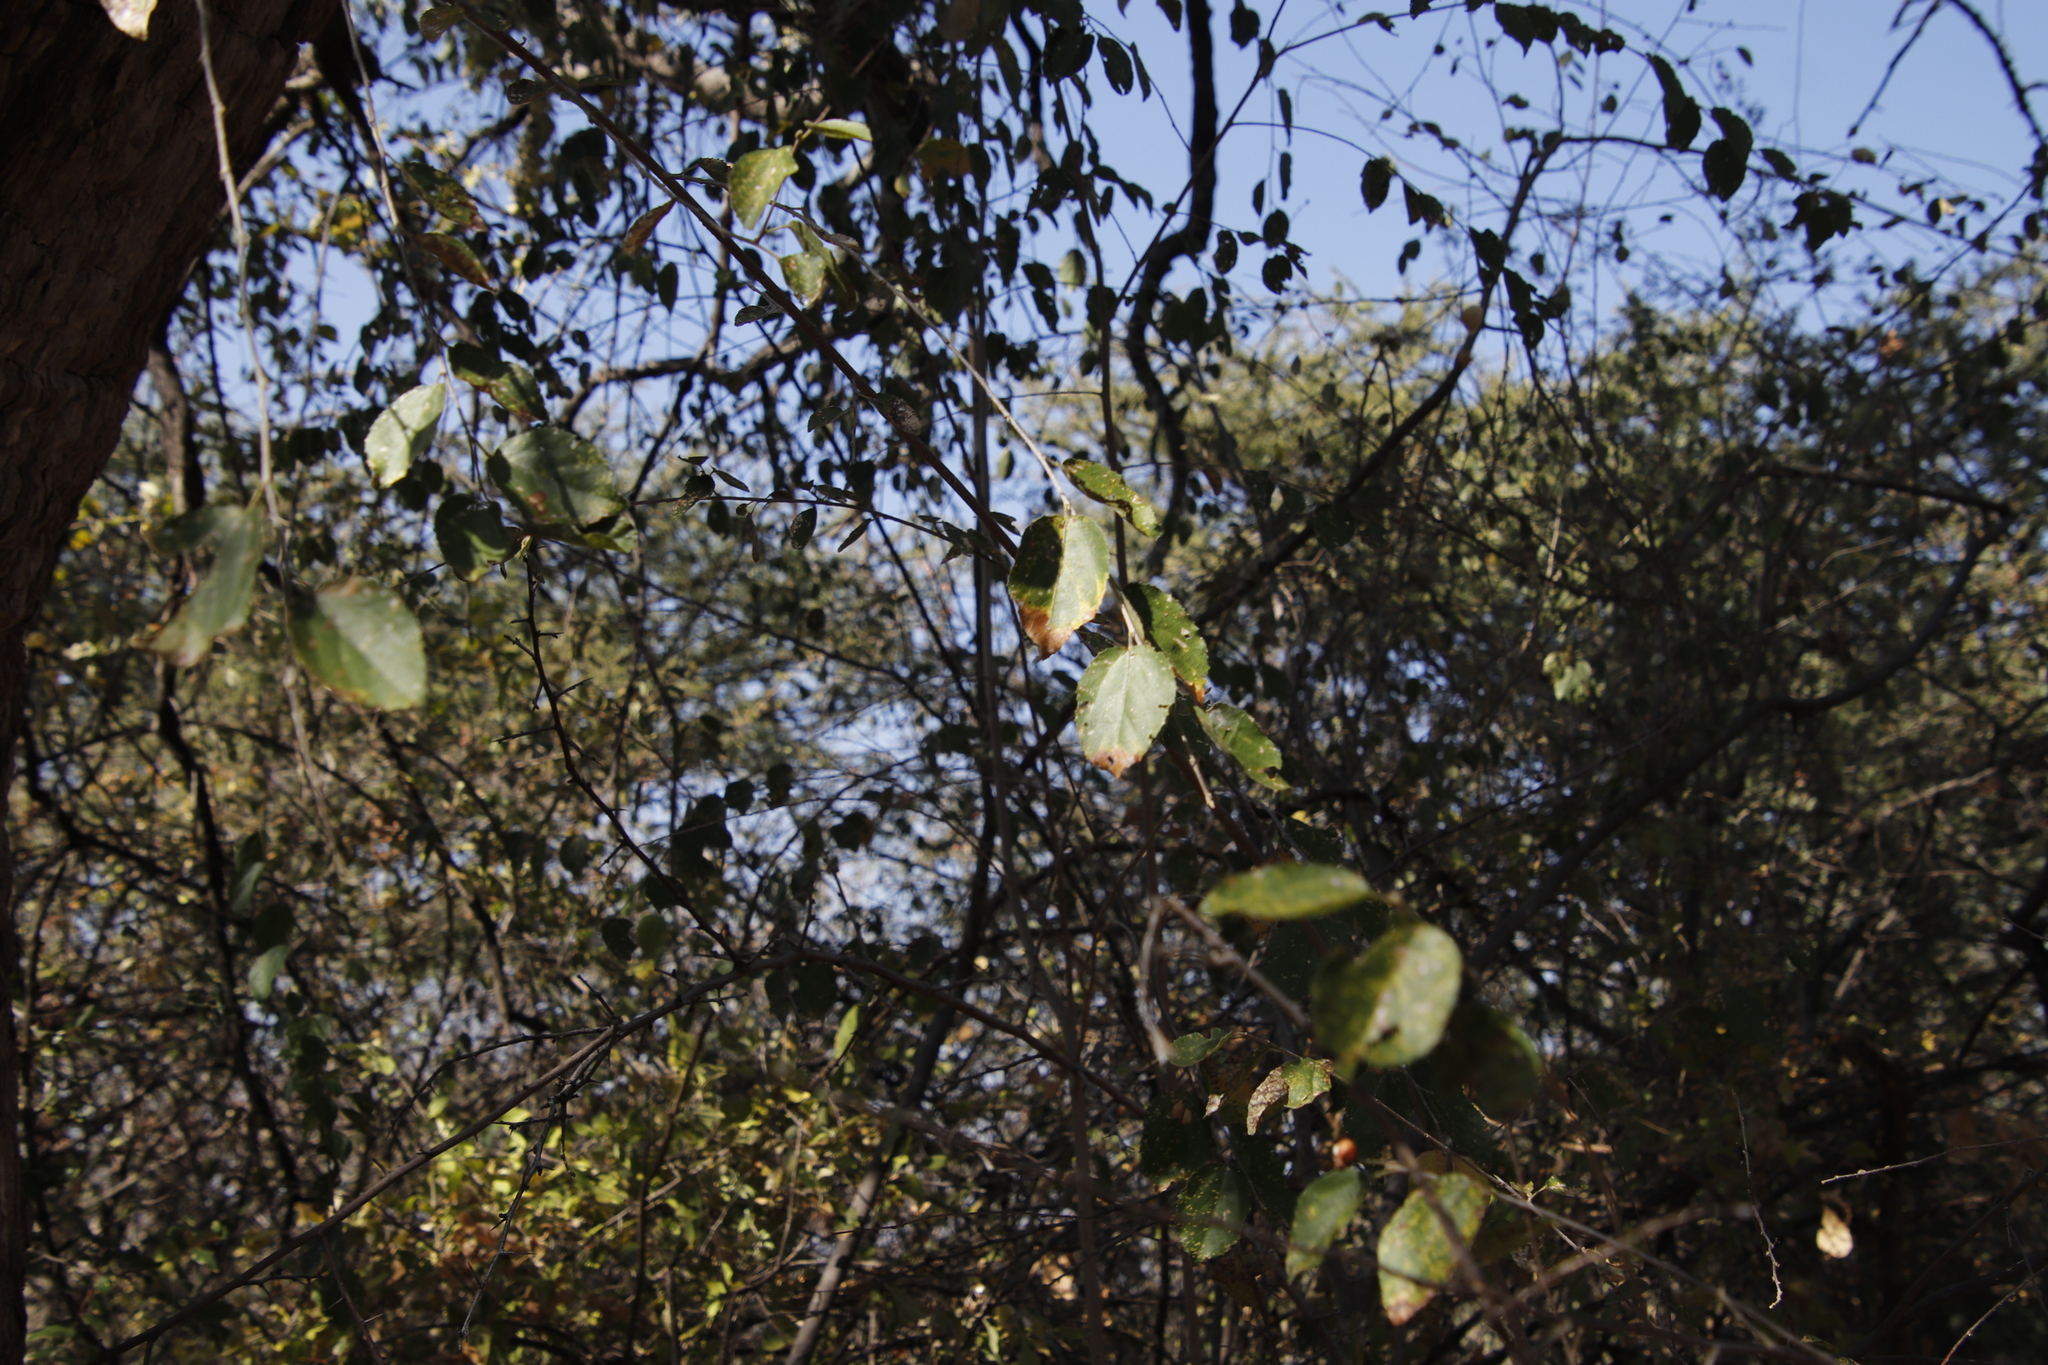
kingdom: Plantae
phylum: Tracheophyta
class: Magnoliopsida
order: Malvales
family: Malvaceae
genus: Grewia
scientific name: Grewia bicolor
